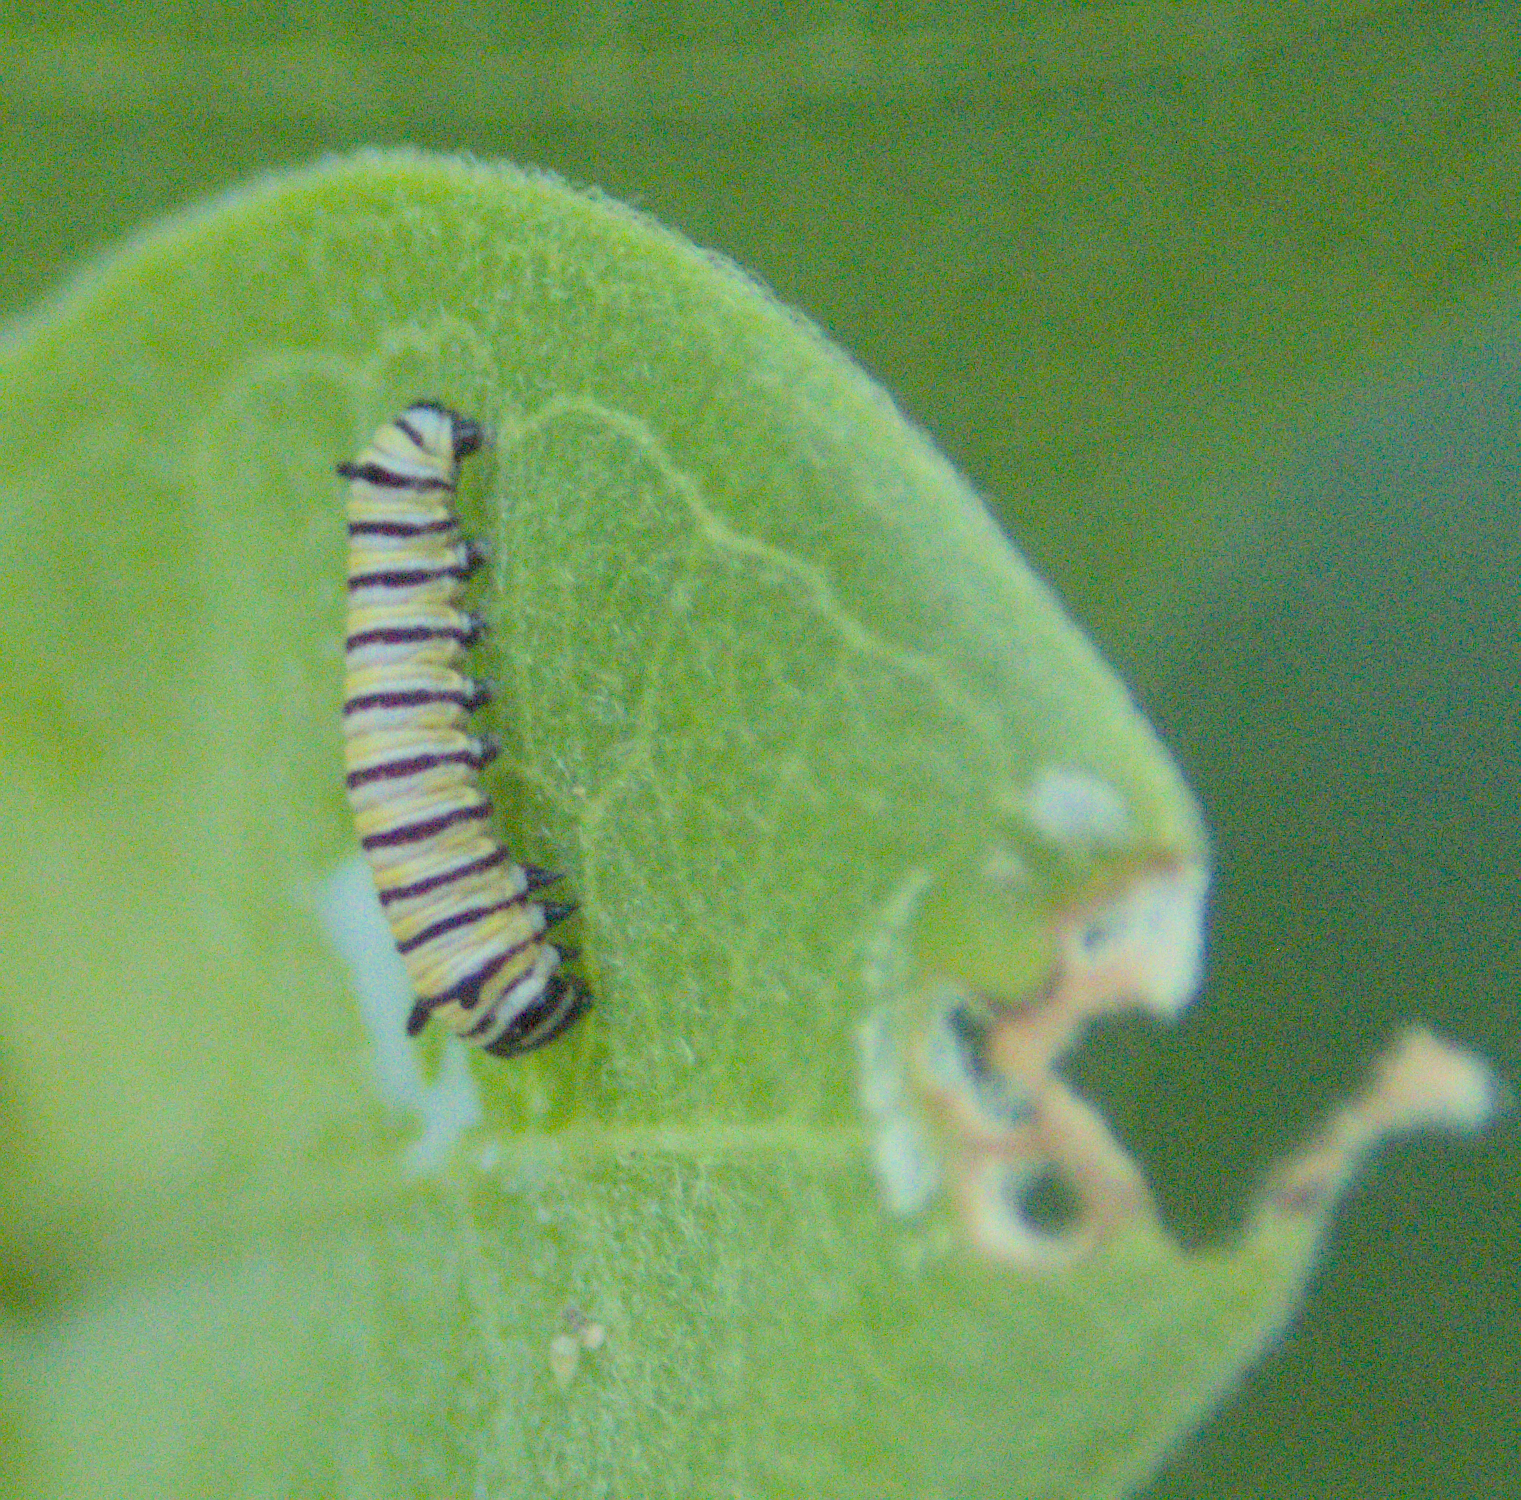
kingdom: Animalia
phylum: Arthropoda
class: Insecta
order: Lepidoptera
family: Nymphalidae
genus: Danaus
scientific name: Danaus plexippus
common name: Monarch
